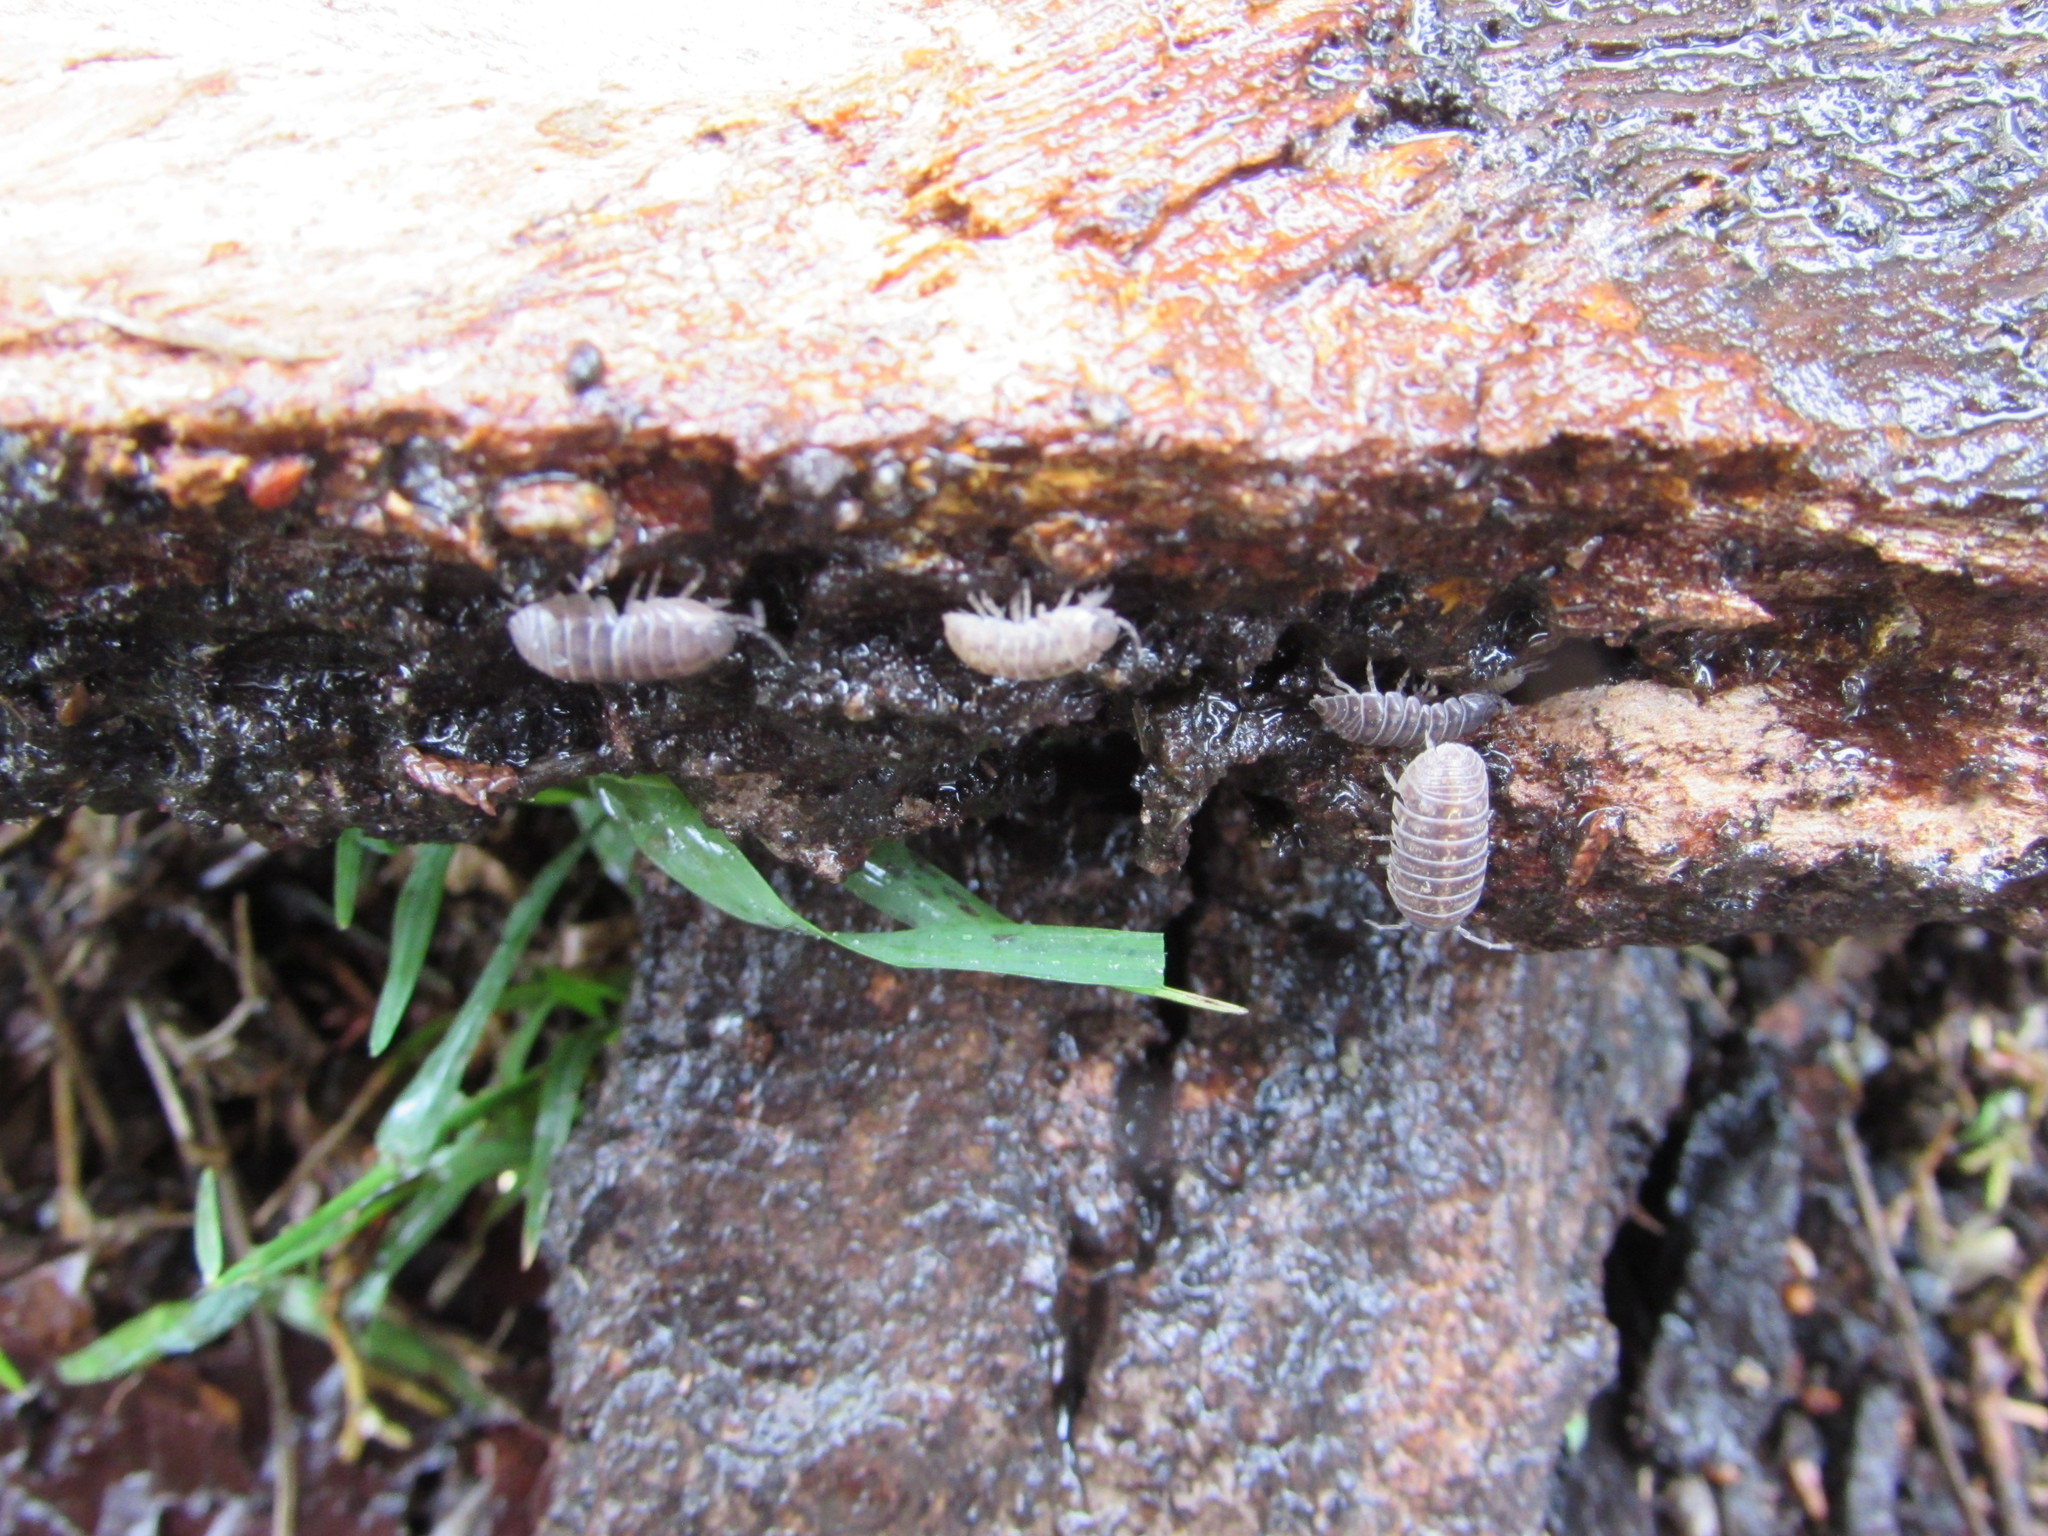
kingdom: Animalia
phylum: Arthropoda
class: Malacostraca
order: Isopoda
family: Armadillidiidae
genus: Armadillidium
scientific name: Armadillidium vulgare
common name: Common pill woodlouse
